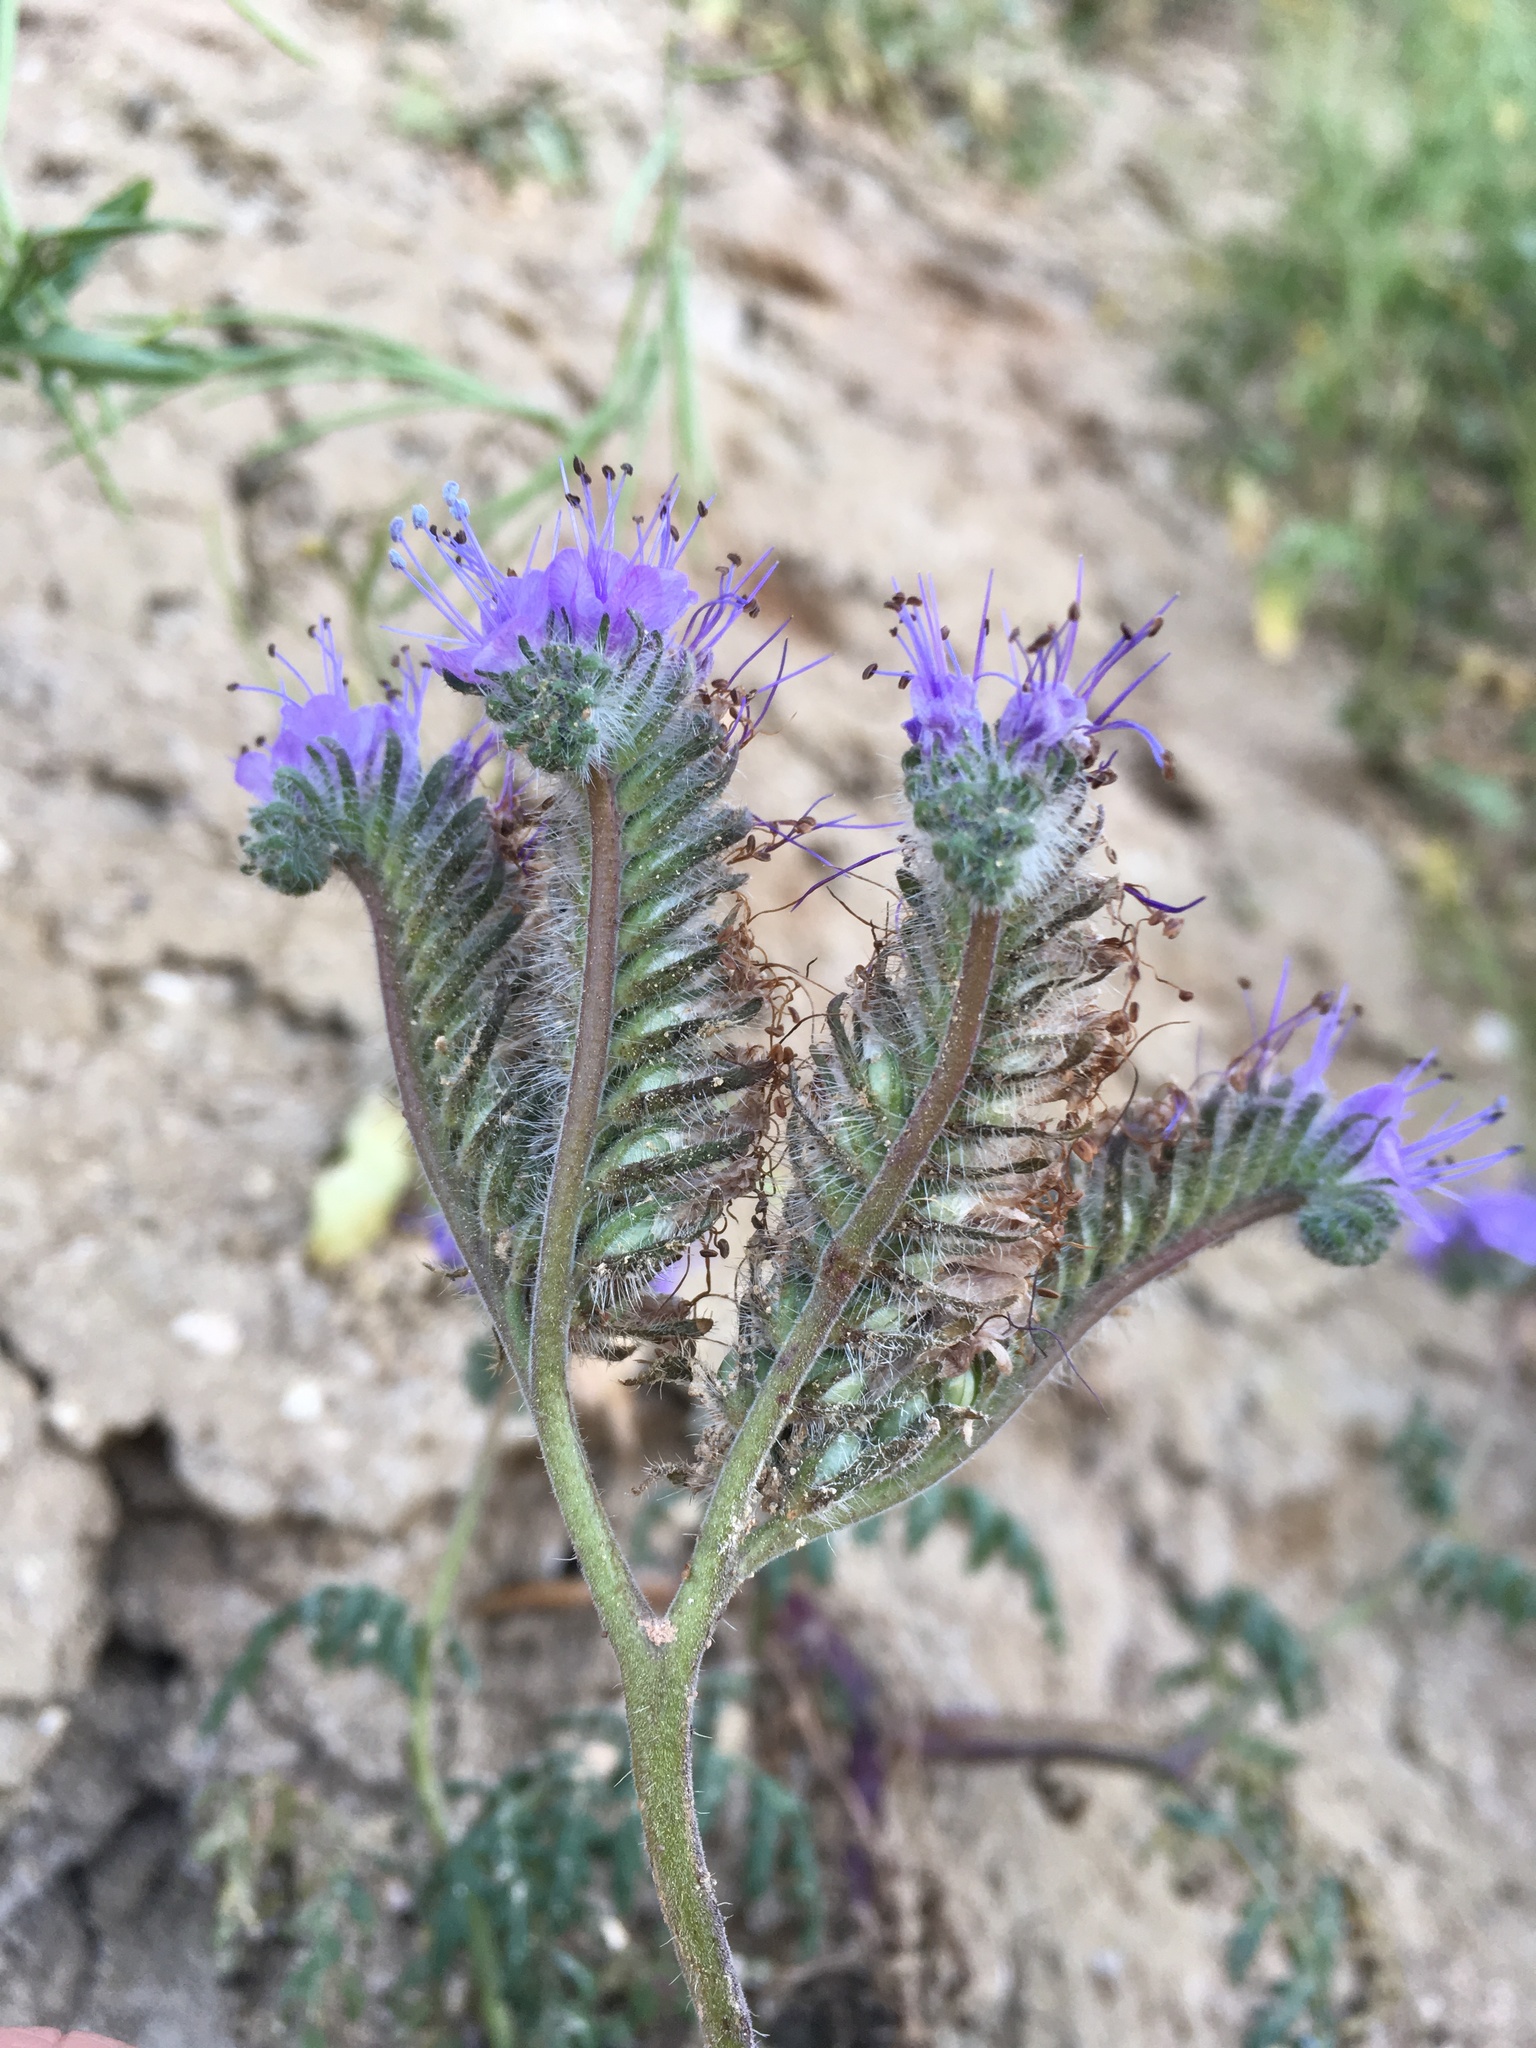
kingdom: Plantae
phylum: Tracheophyta
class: Magnoliopsida
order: Boraginales
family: Hydrophyllaceae
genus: Phacelia
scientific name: Phacelia tanacetifolia
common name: Phacelia
